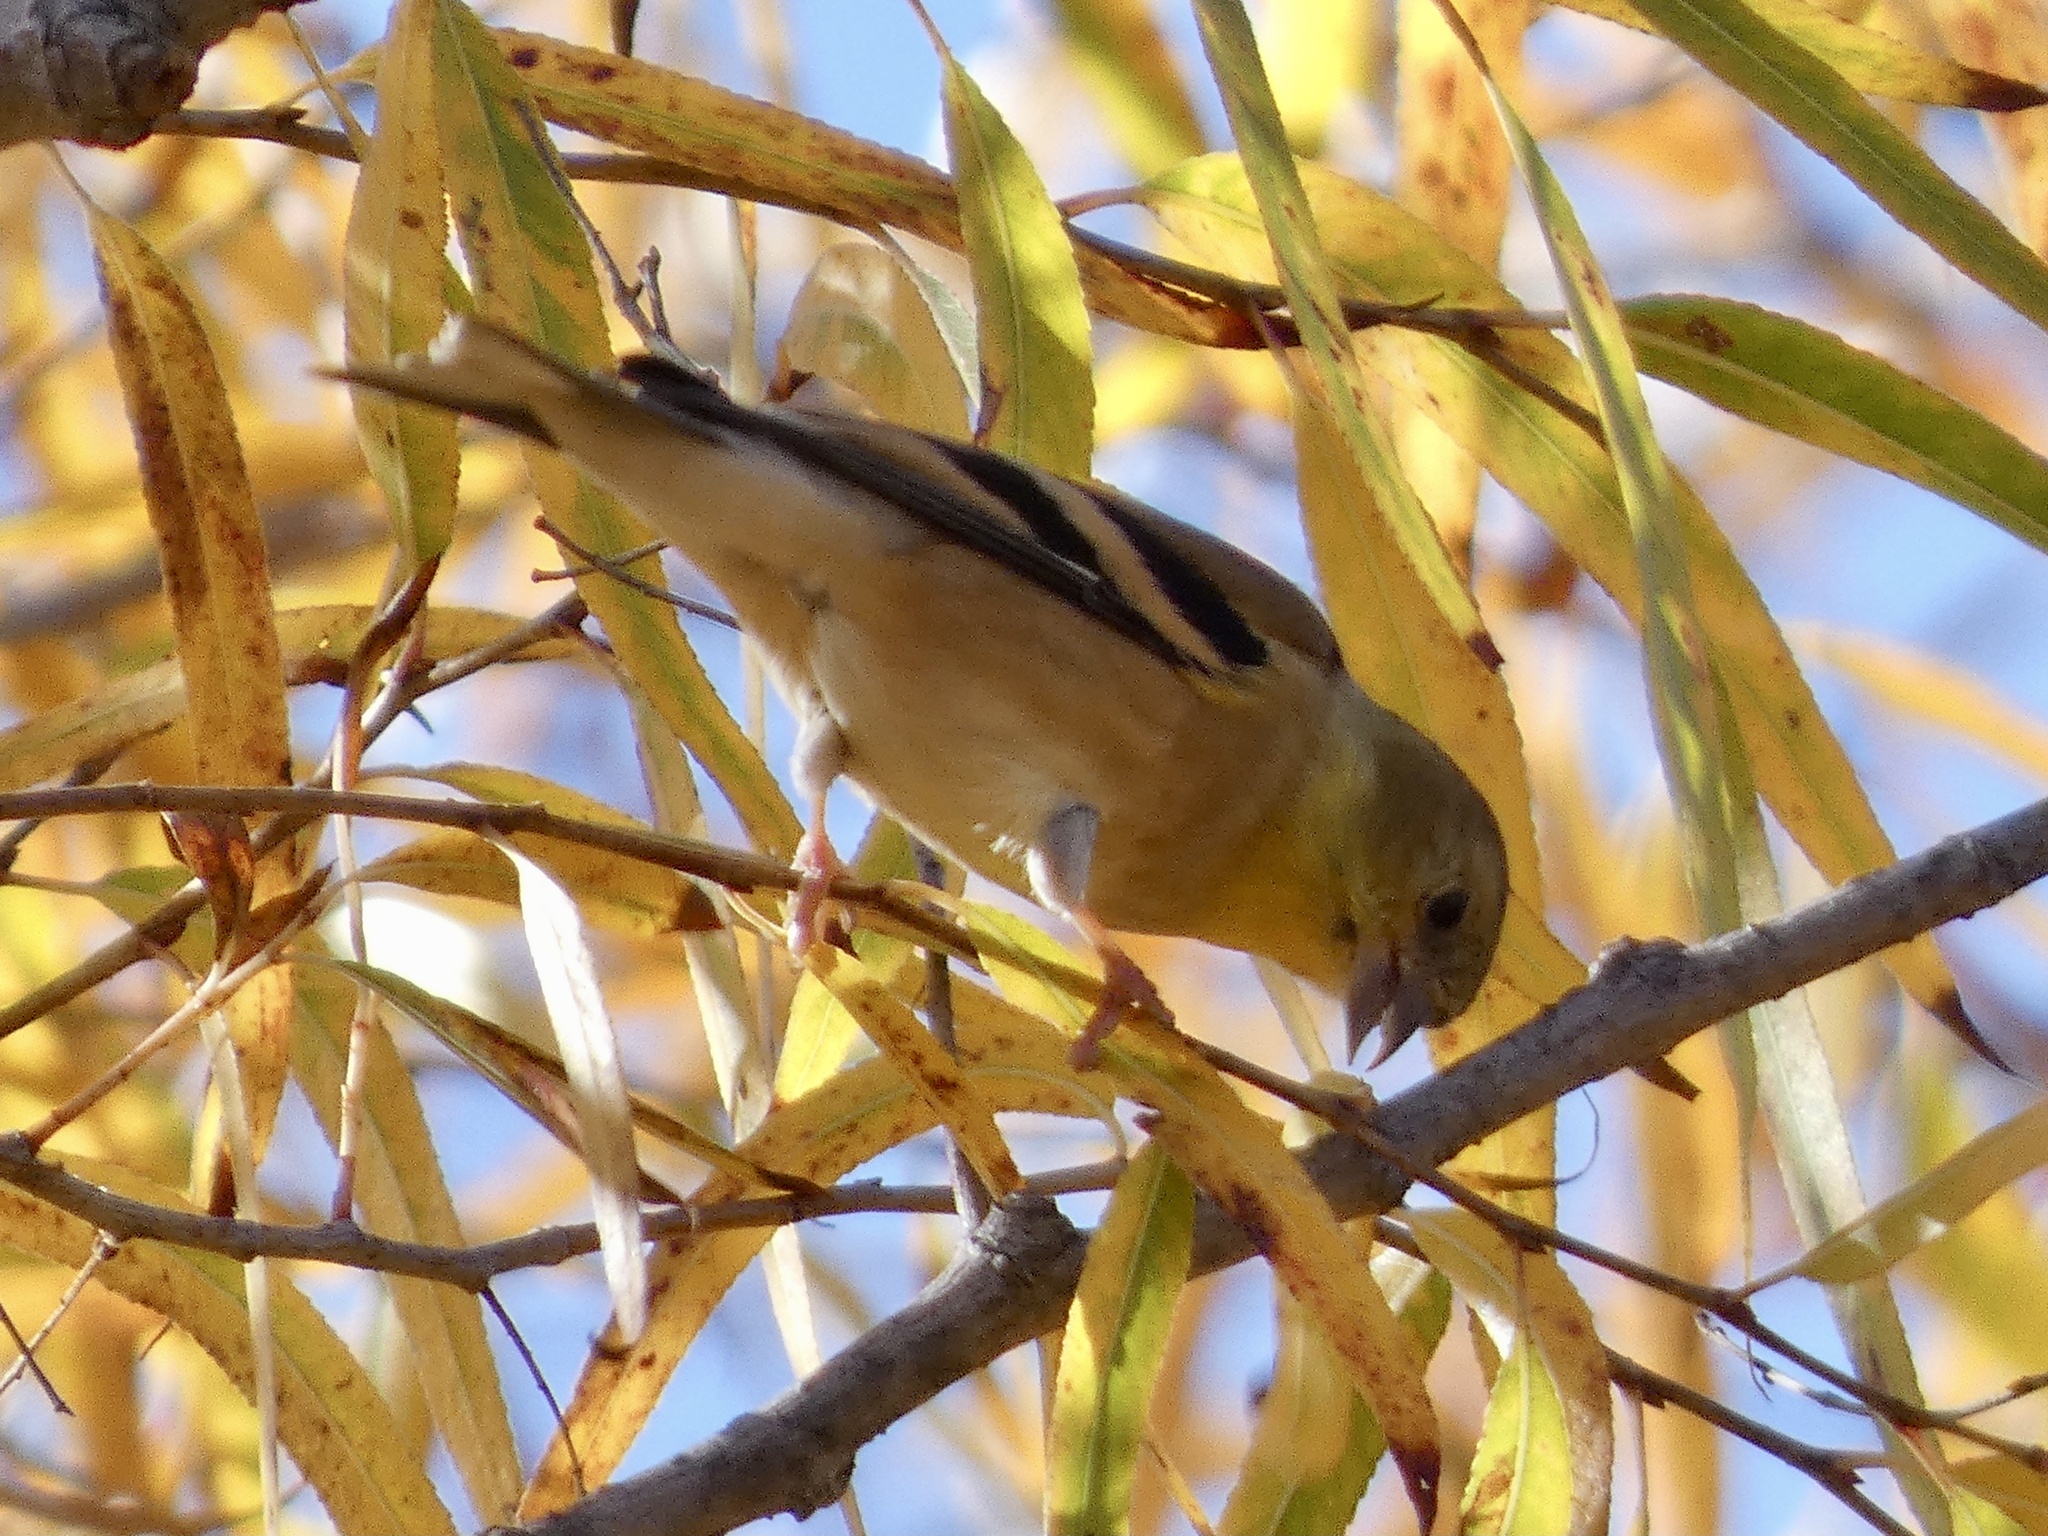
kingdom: Animalia
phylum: Chordata
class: Aves
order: Passeriformes
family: Fringillidae
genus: Spinus
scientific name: Spinus tristis
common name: American goldfinch
